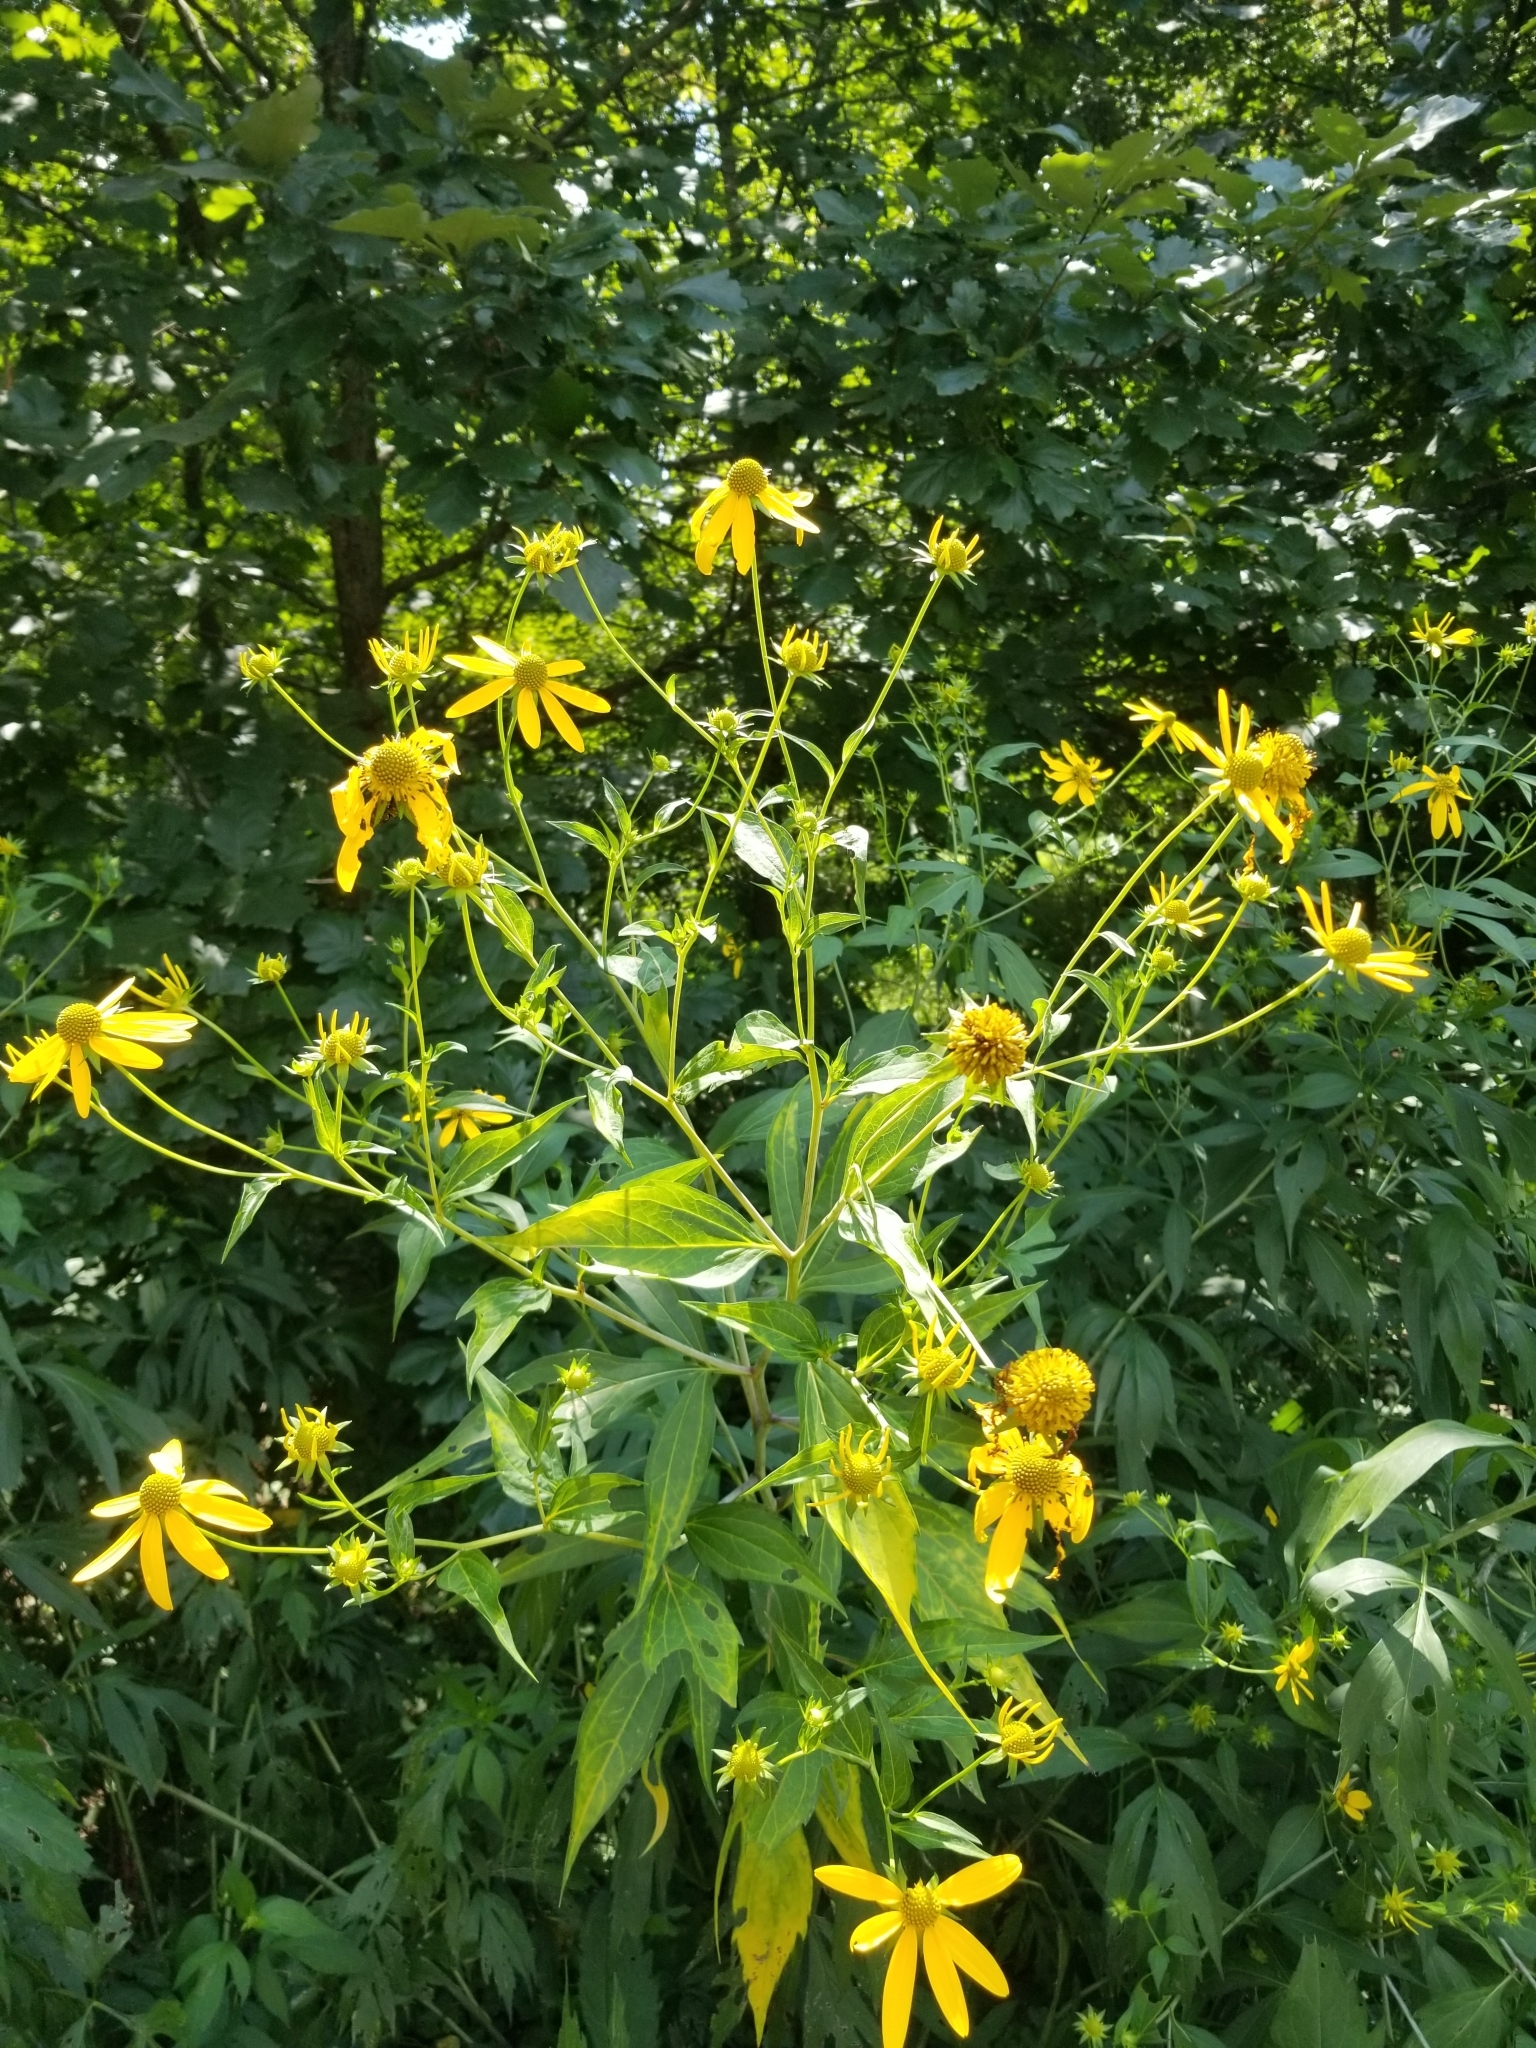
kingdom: Plantae
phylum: Tracheophyta
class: Magnoliopsida
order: Asterales
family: Asteraceae
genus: Rudbeckia
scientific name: Rudbeckia laciniata
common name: Coneflower
